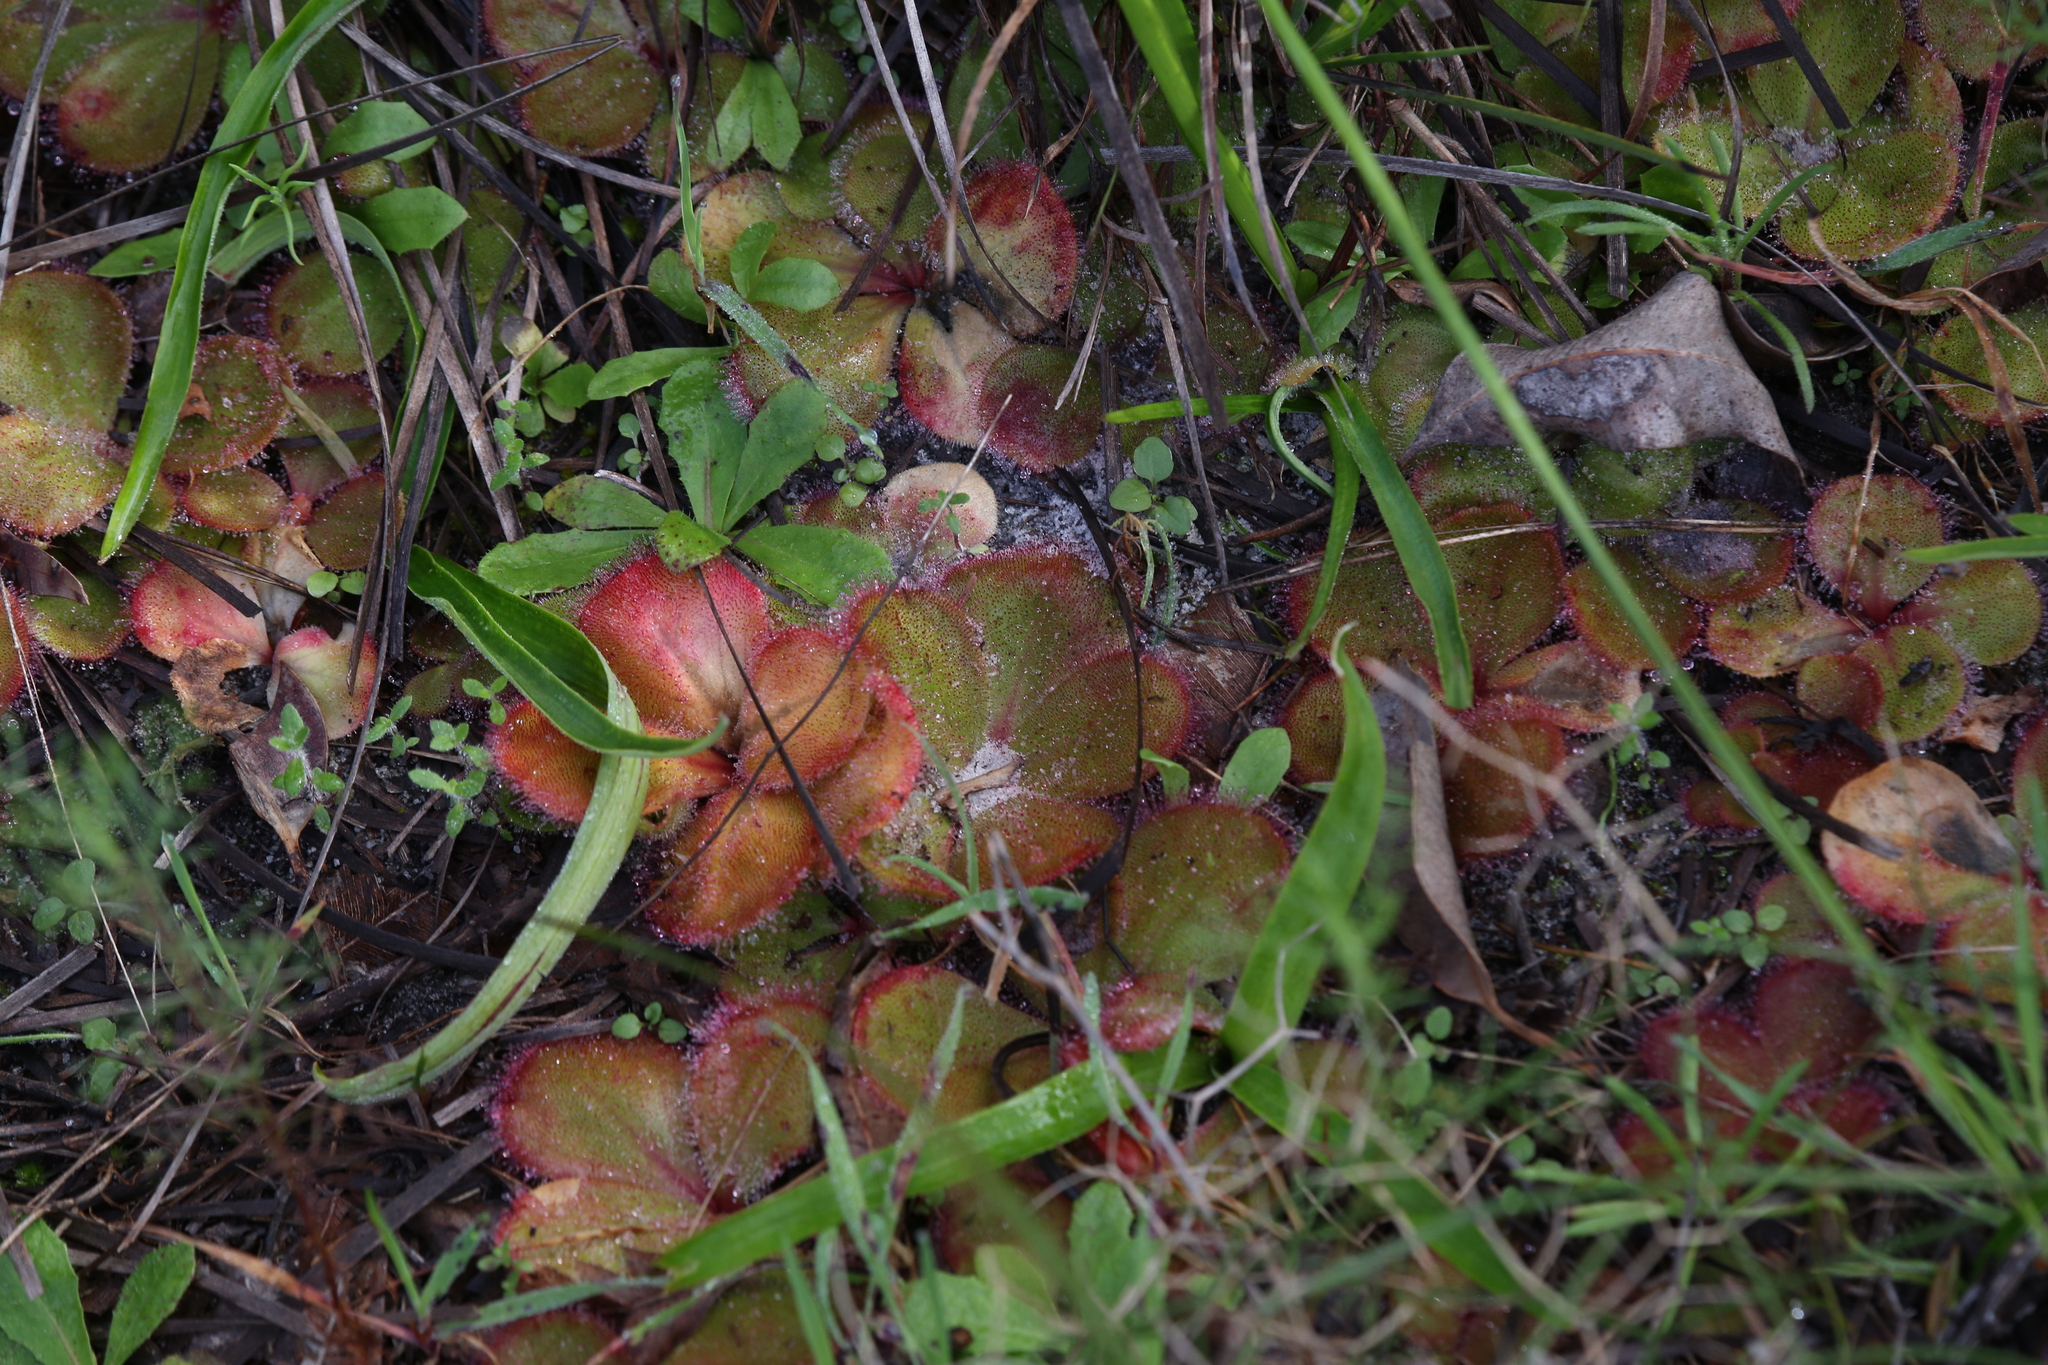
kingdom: Plantae
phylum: Tracheophyta
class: Magnoliopsida
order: Caryophyllales
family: Droseraceae
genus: Drosera
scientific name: Drosera erythrorhiza
